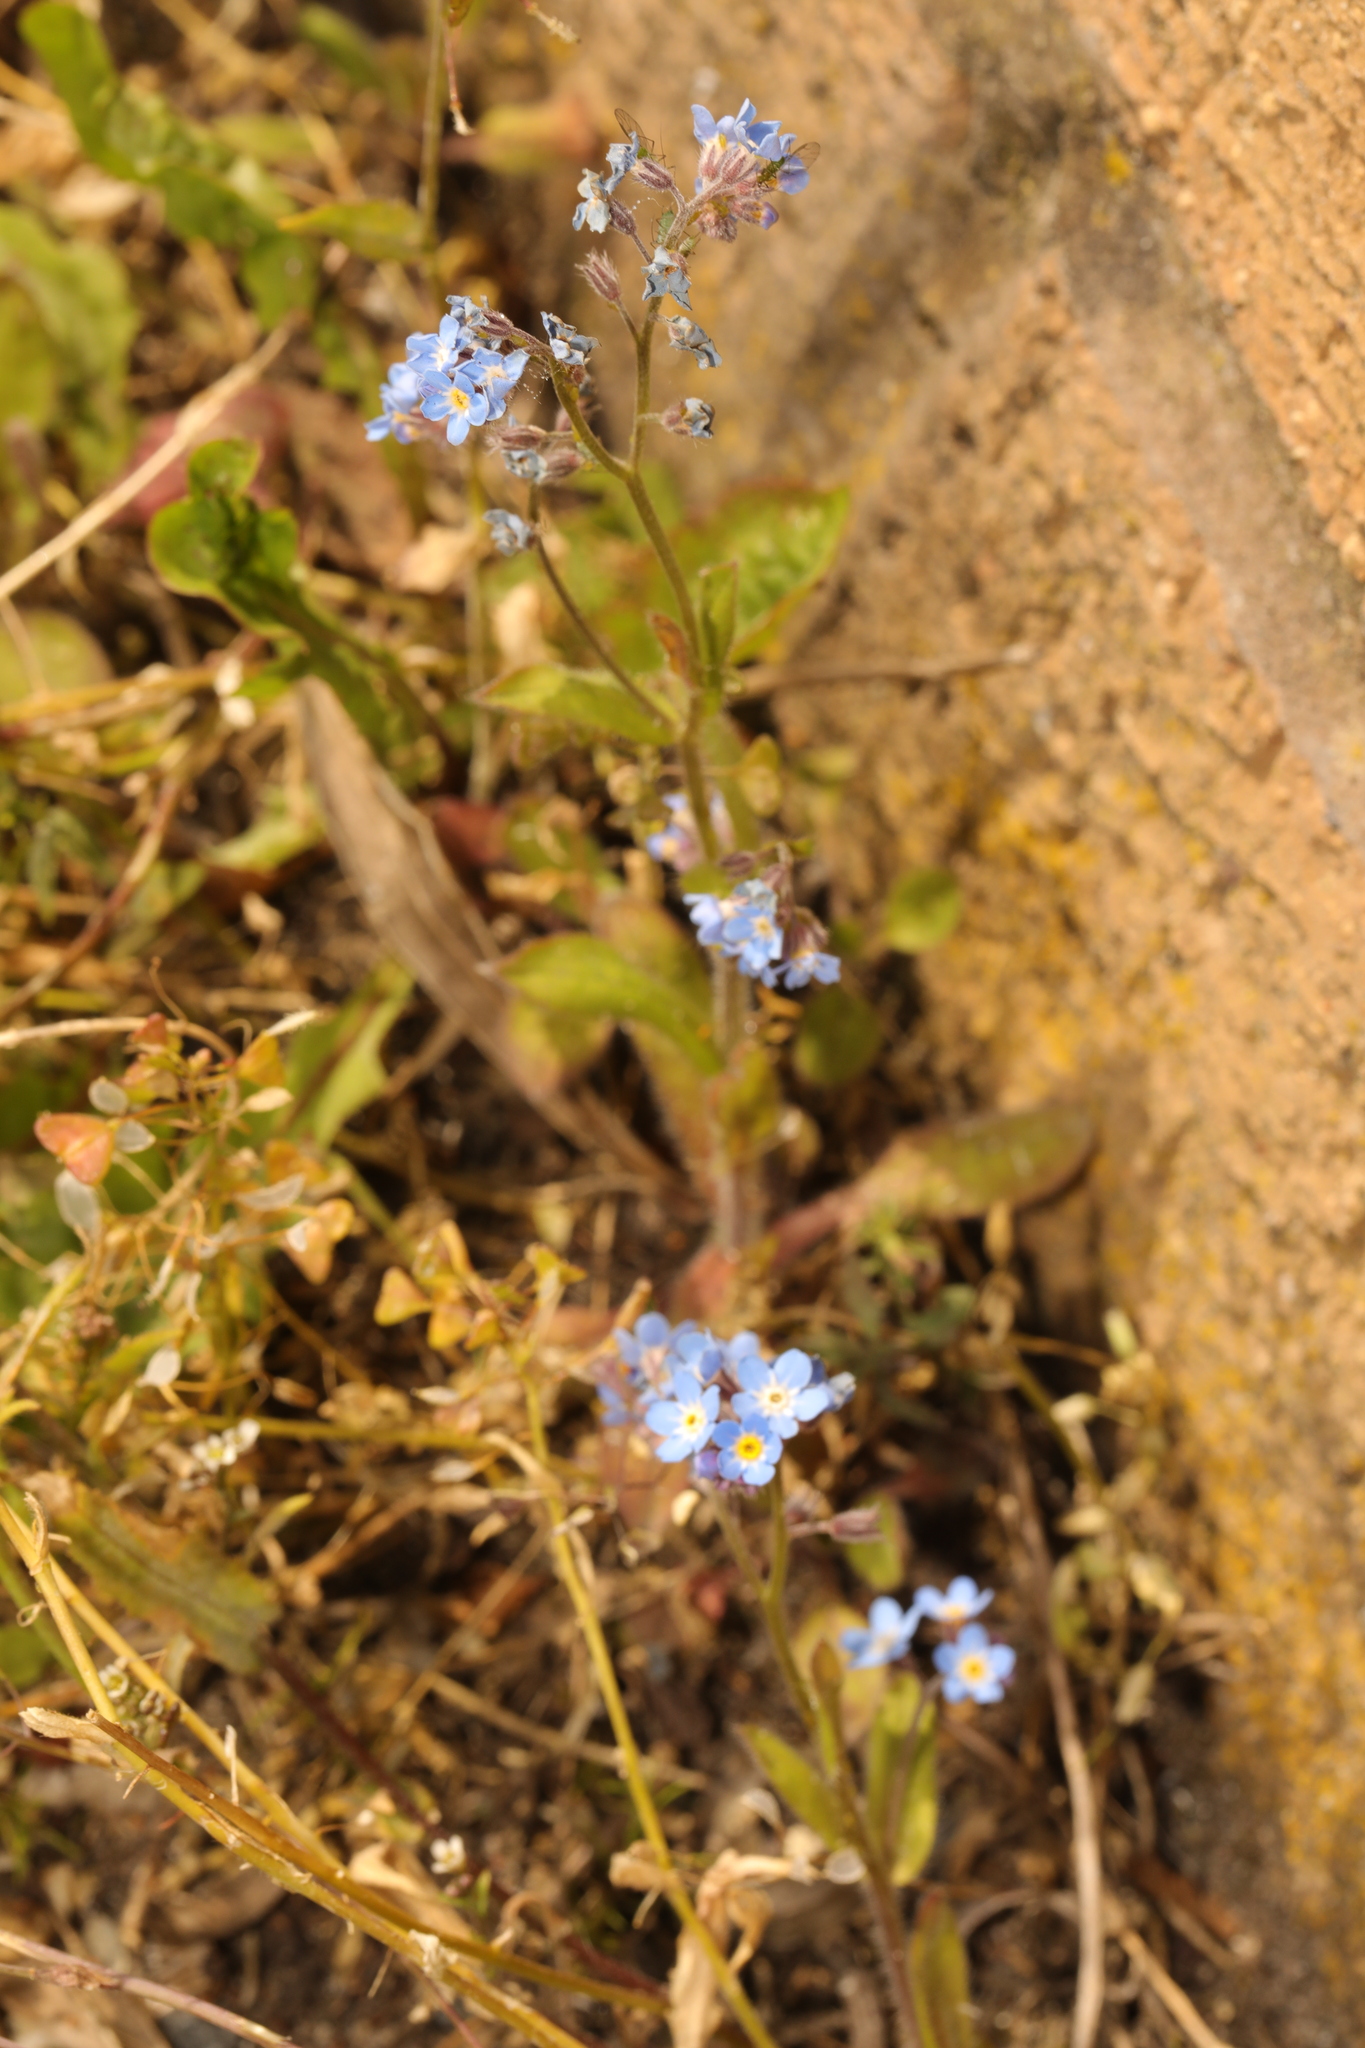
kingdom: Plantae
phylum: Tracheophyta
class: Magnoliopsida
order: Boraginales
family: Boraginaceae
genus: Myosotis
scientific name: Myosotis sylvatica
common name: Wood forget-me-not
